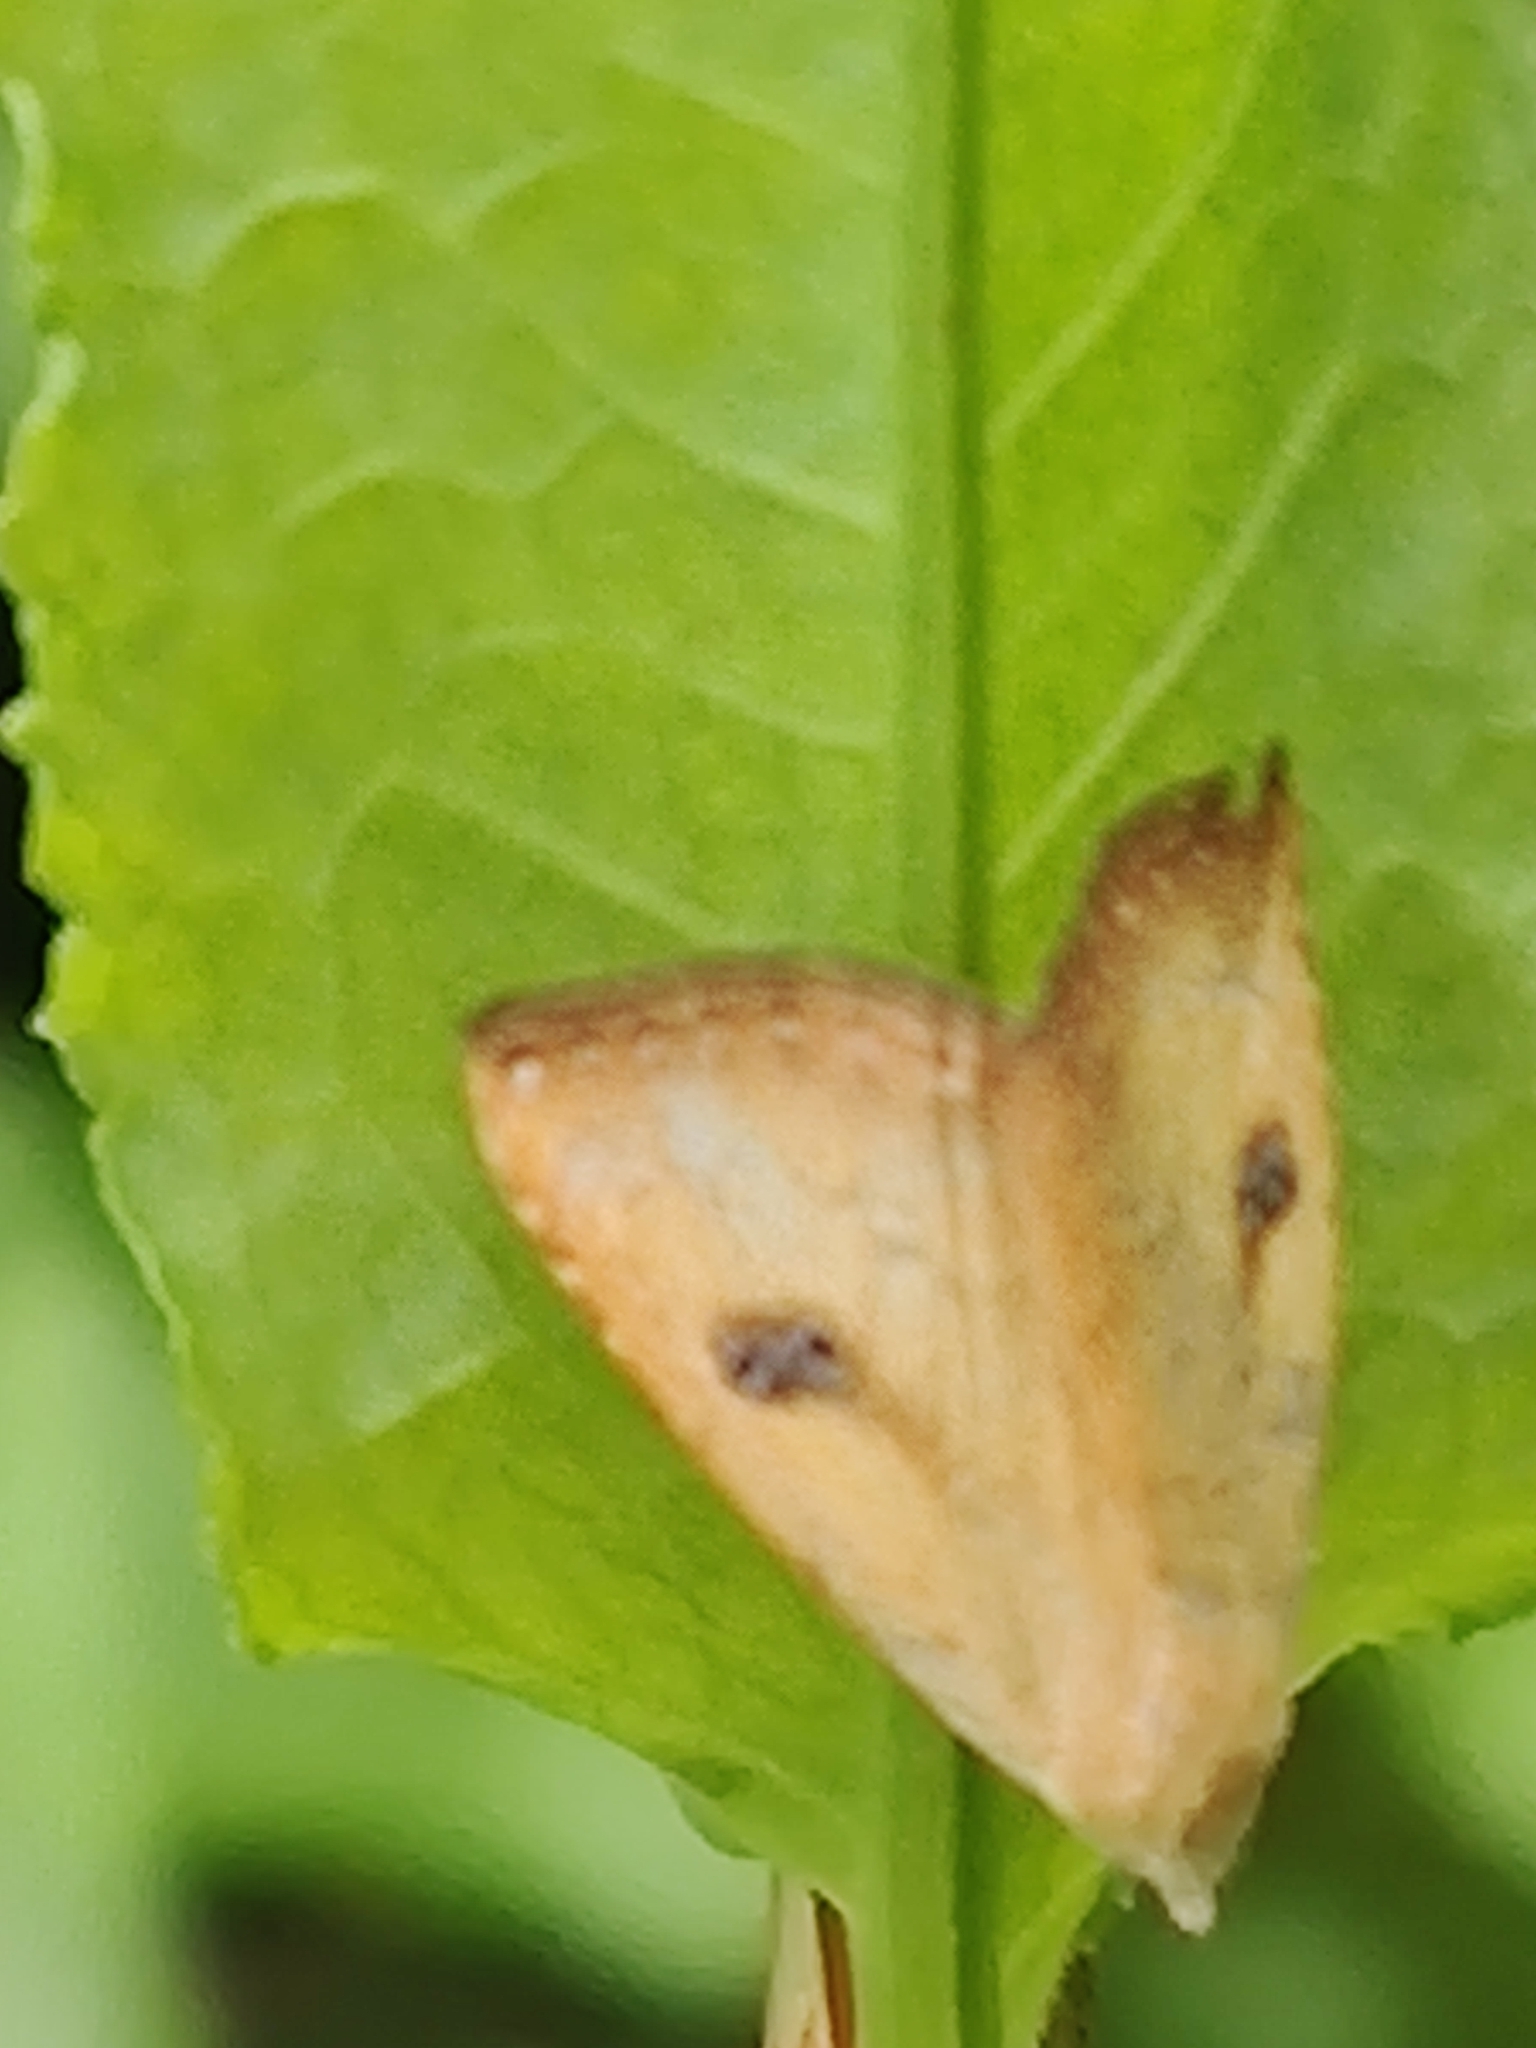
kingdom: Animalia
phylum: Arthropoda
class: Insecta
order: Lepidoptera
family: Erebidae
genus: Rivula
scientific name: Rivula sericealis
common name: Straw dot
